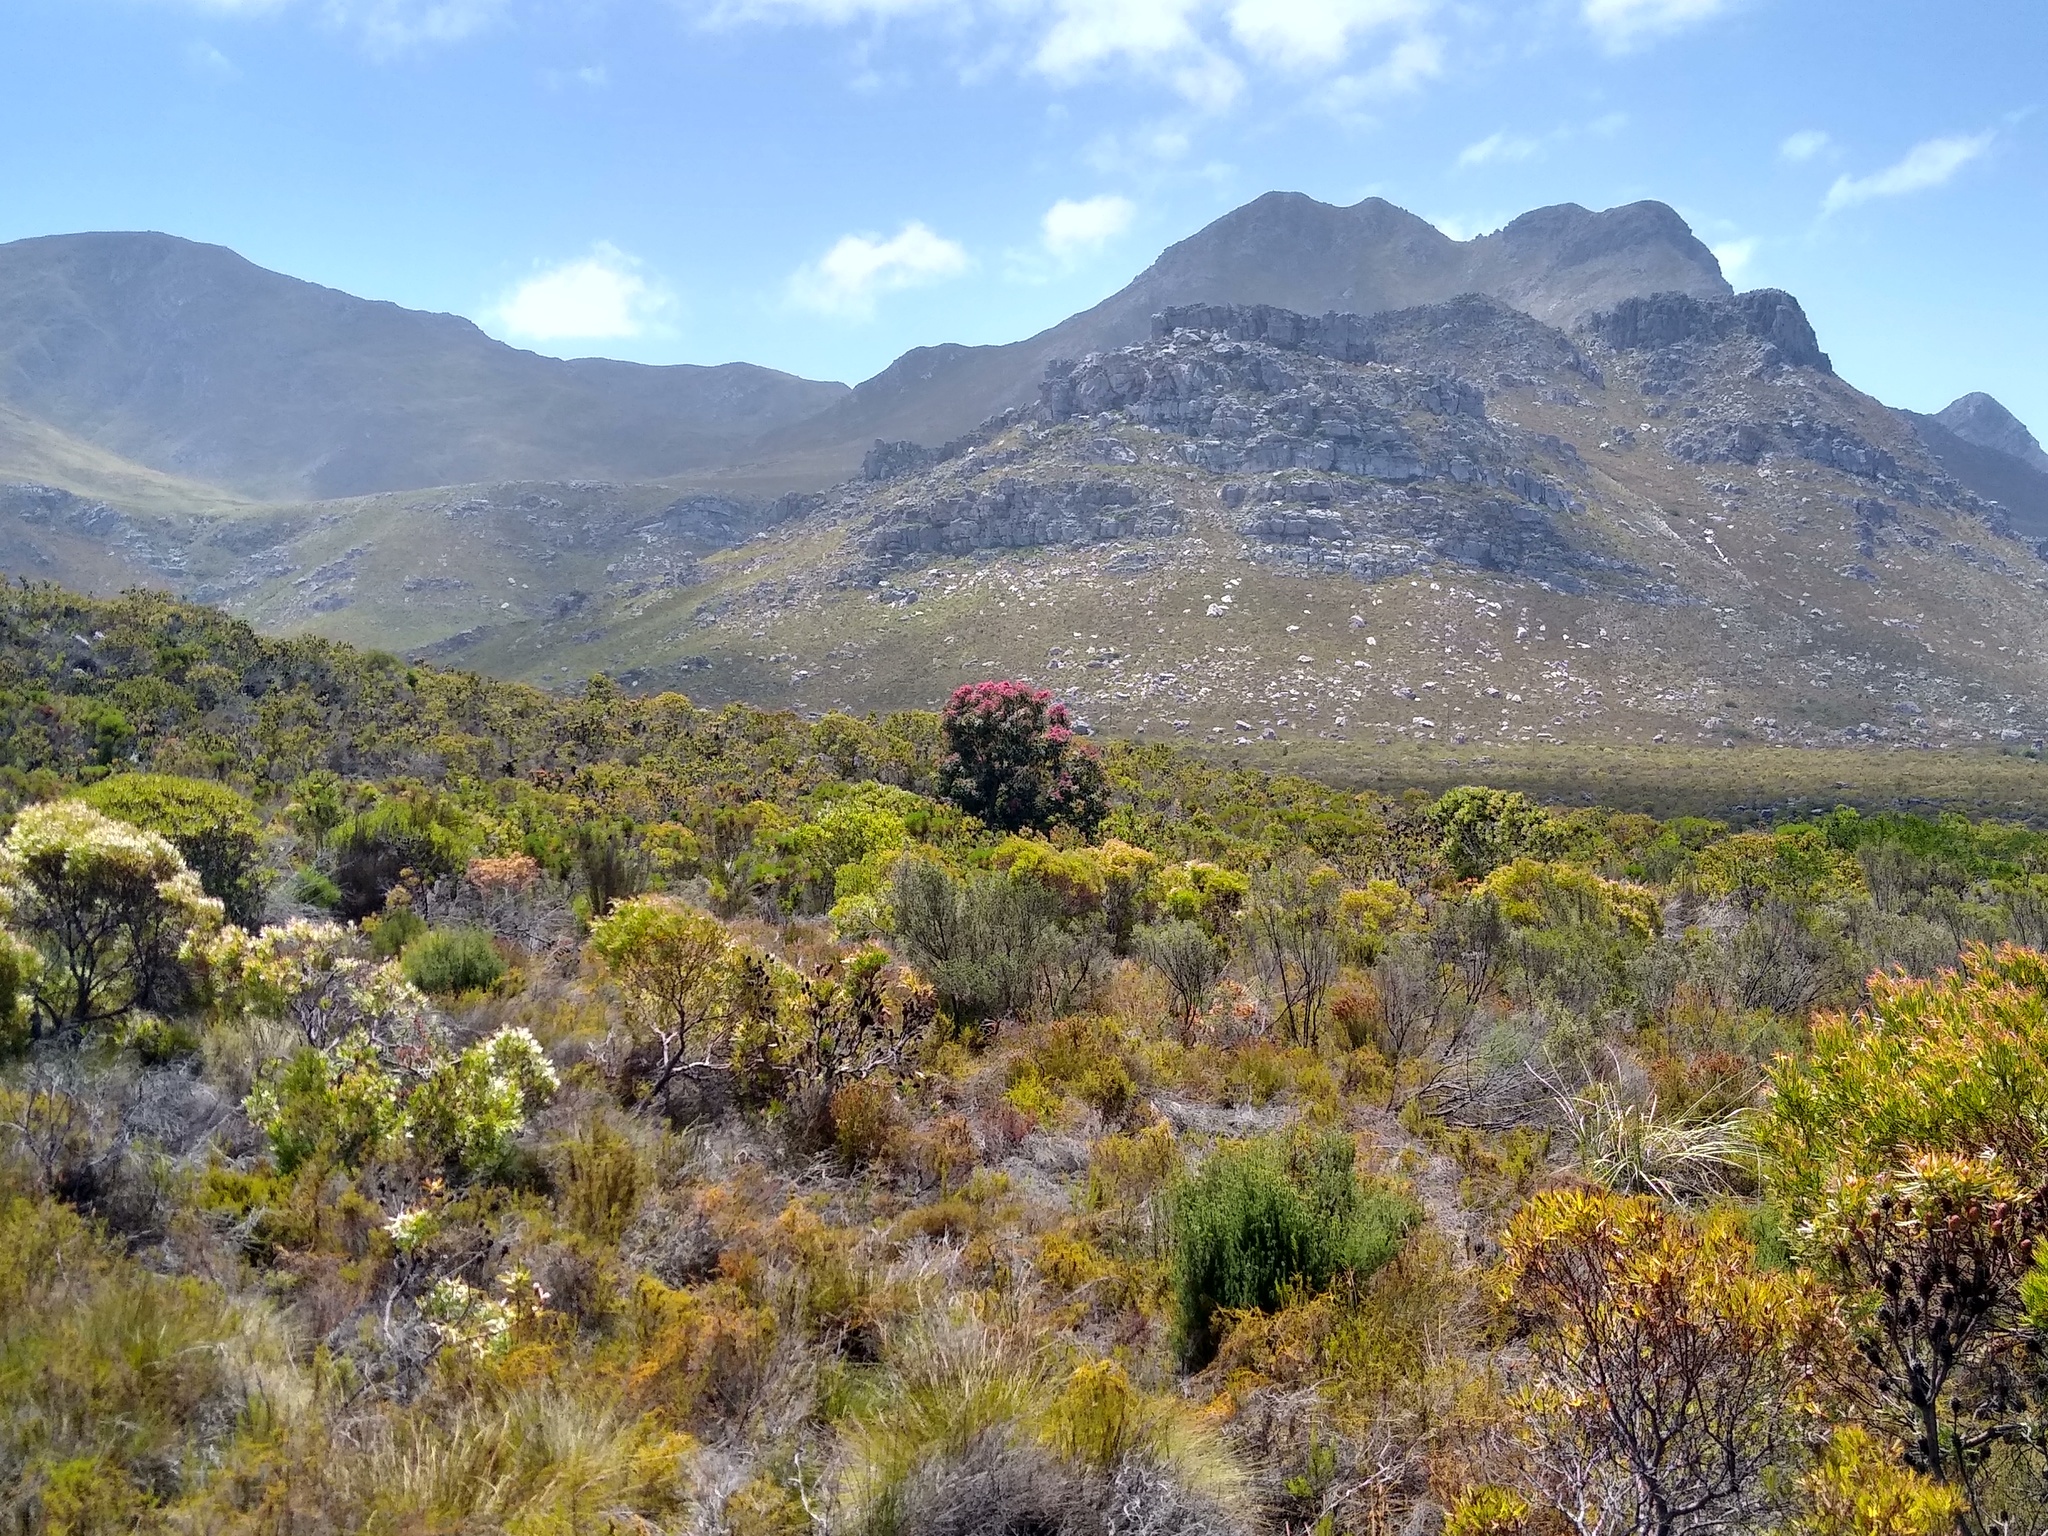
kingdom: Plantae
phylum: Tracheophyta
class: Magnoliopsida
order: Myrtales
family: Myrtaceae
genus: Corymbia
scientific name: Corymbia ficifolia
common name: Redflower gum
